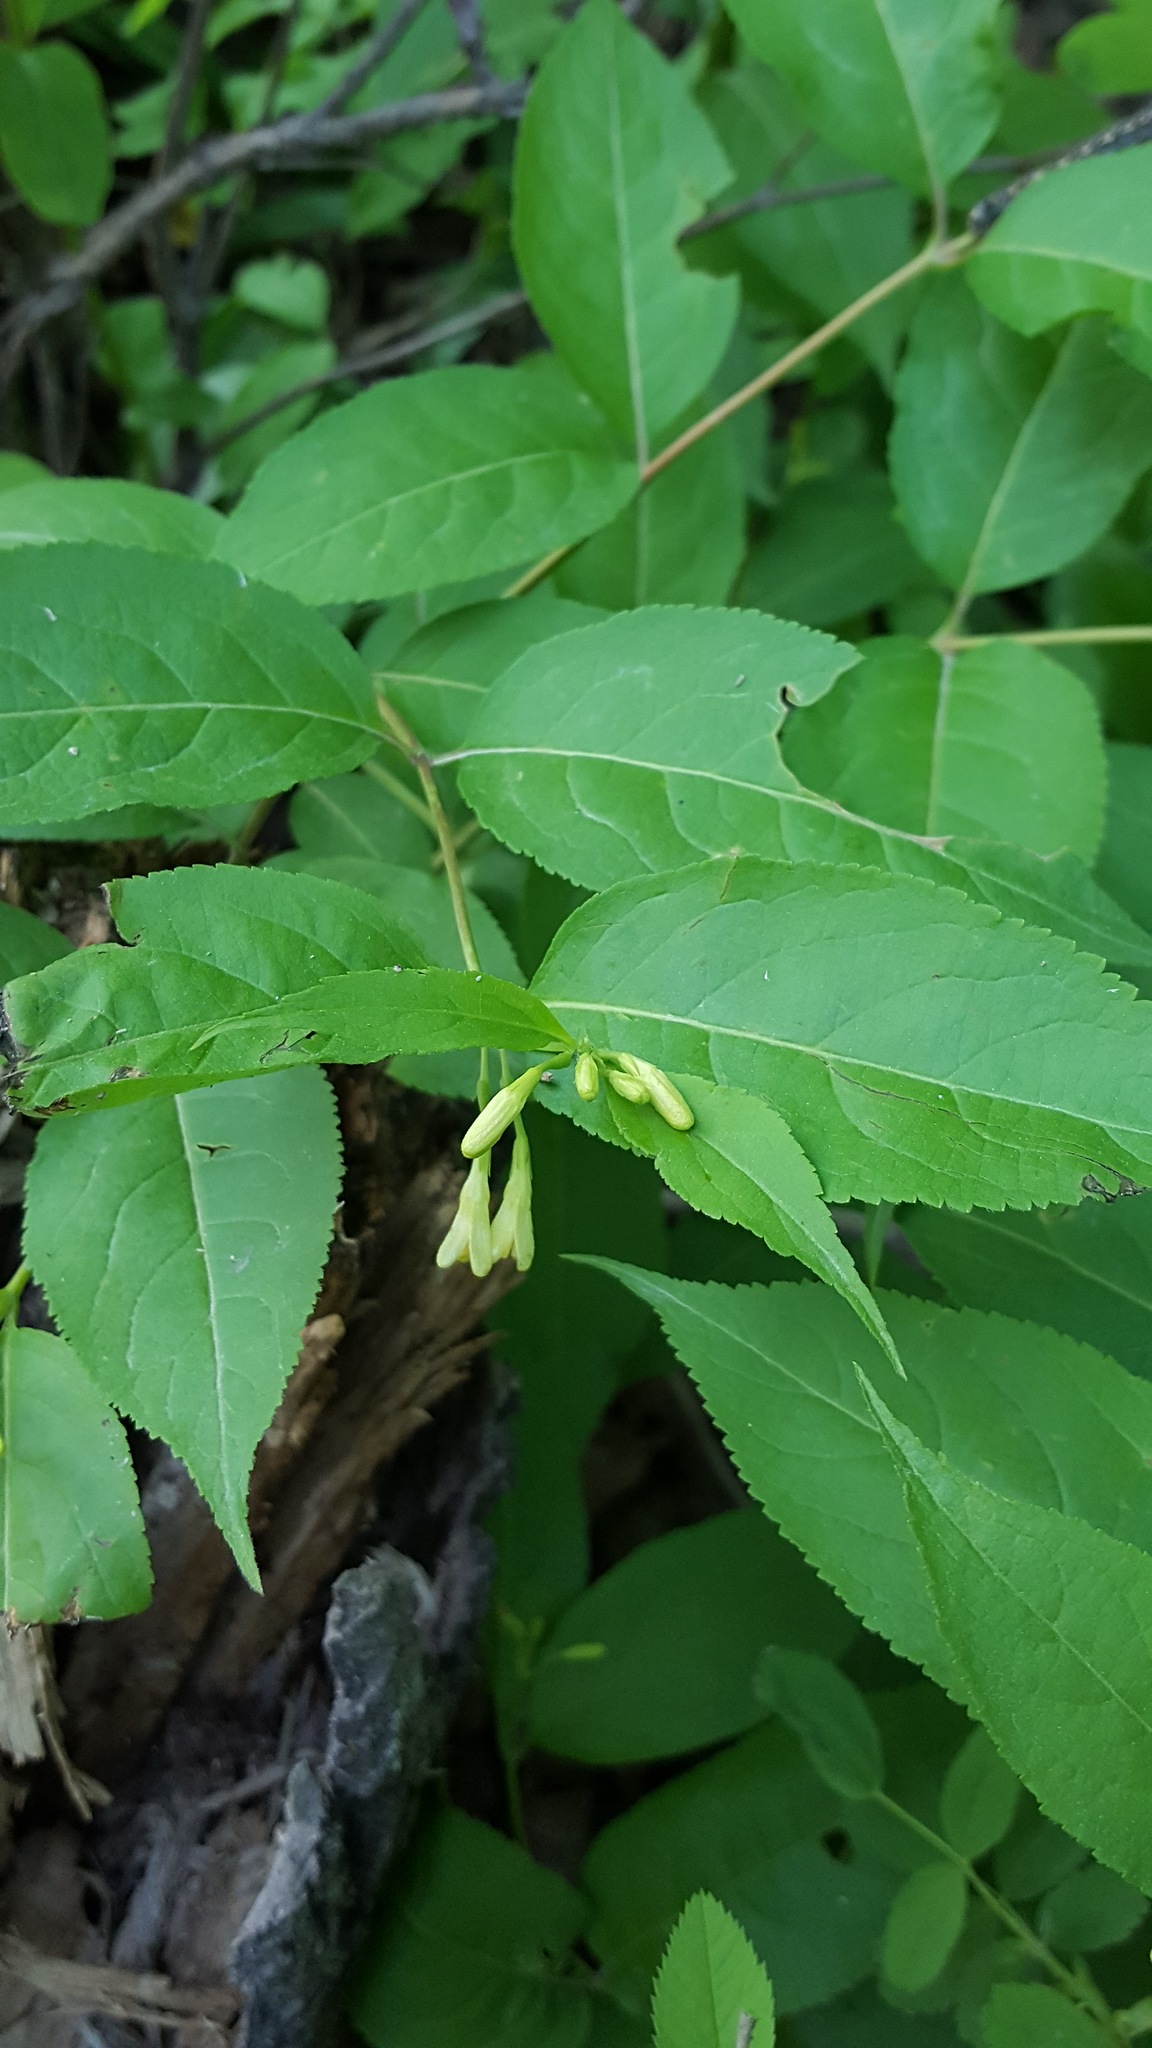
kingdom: Plantae
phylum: Tracheophyta
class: Magnoliopsida
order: Dipsacales
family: Caprifoliaceae
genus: Diervilla
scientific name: Diervilla lonicera
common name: Bush-honeysuckle
